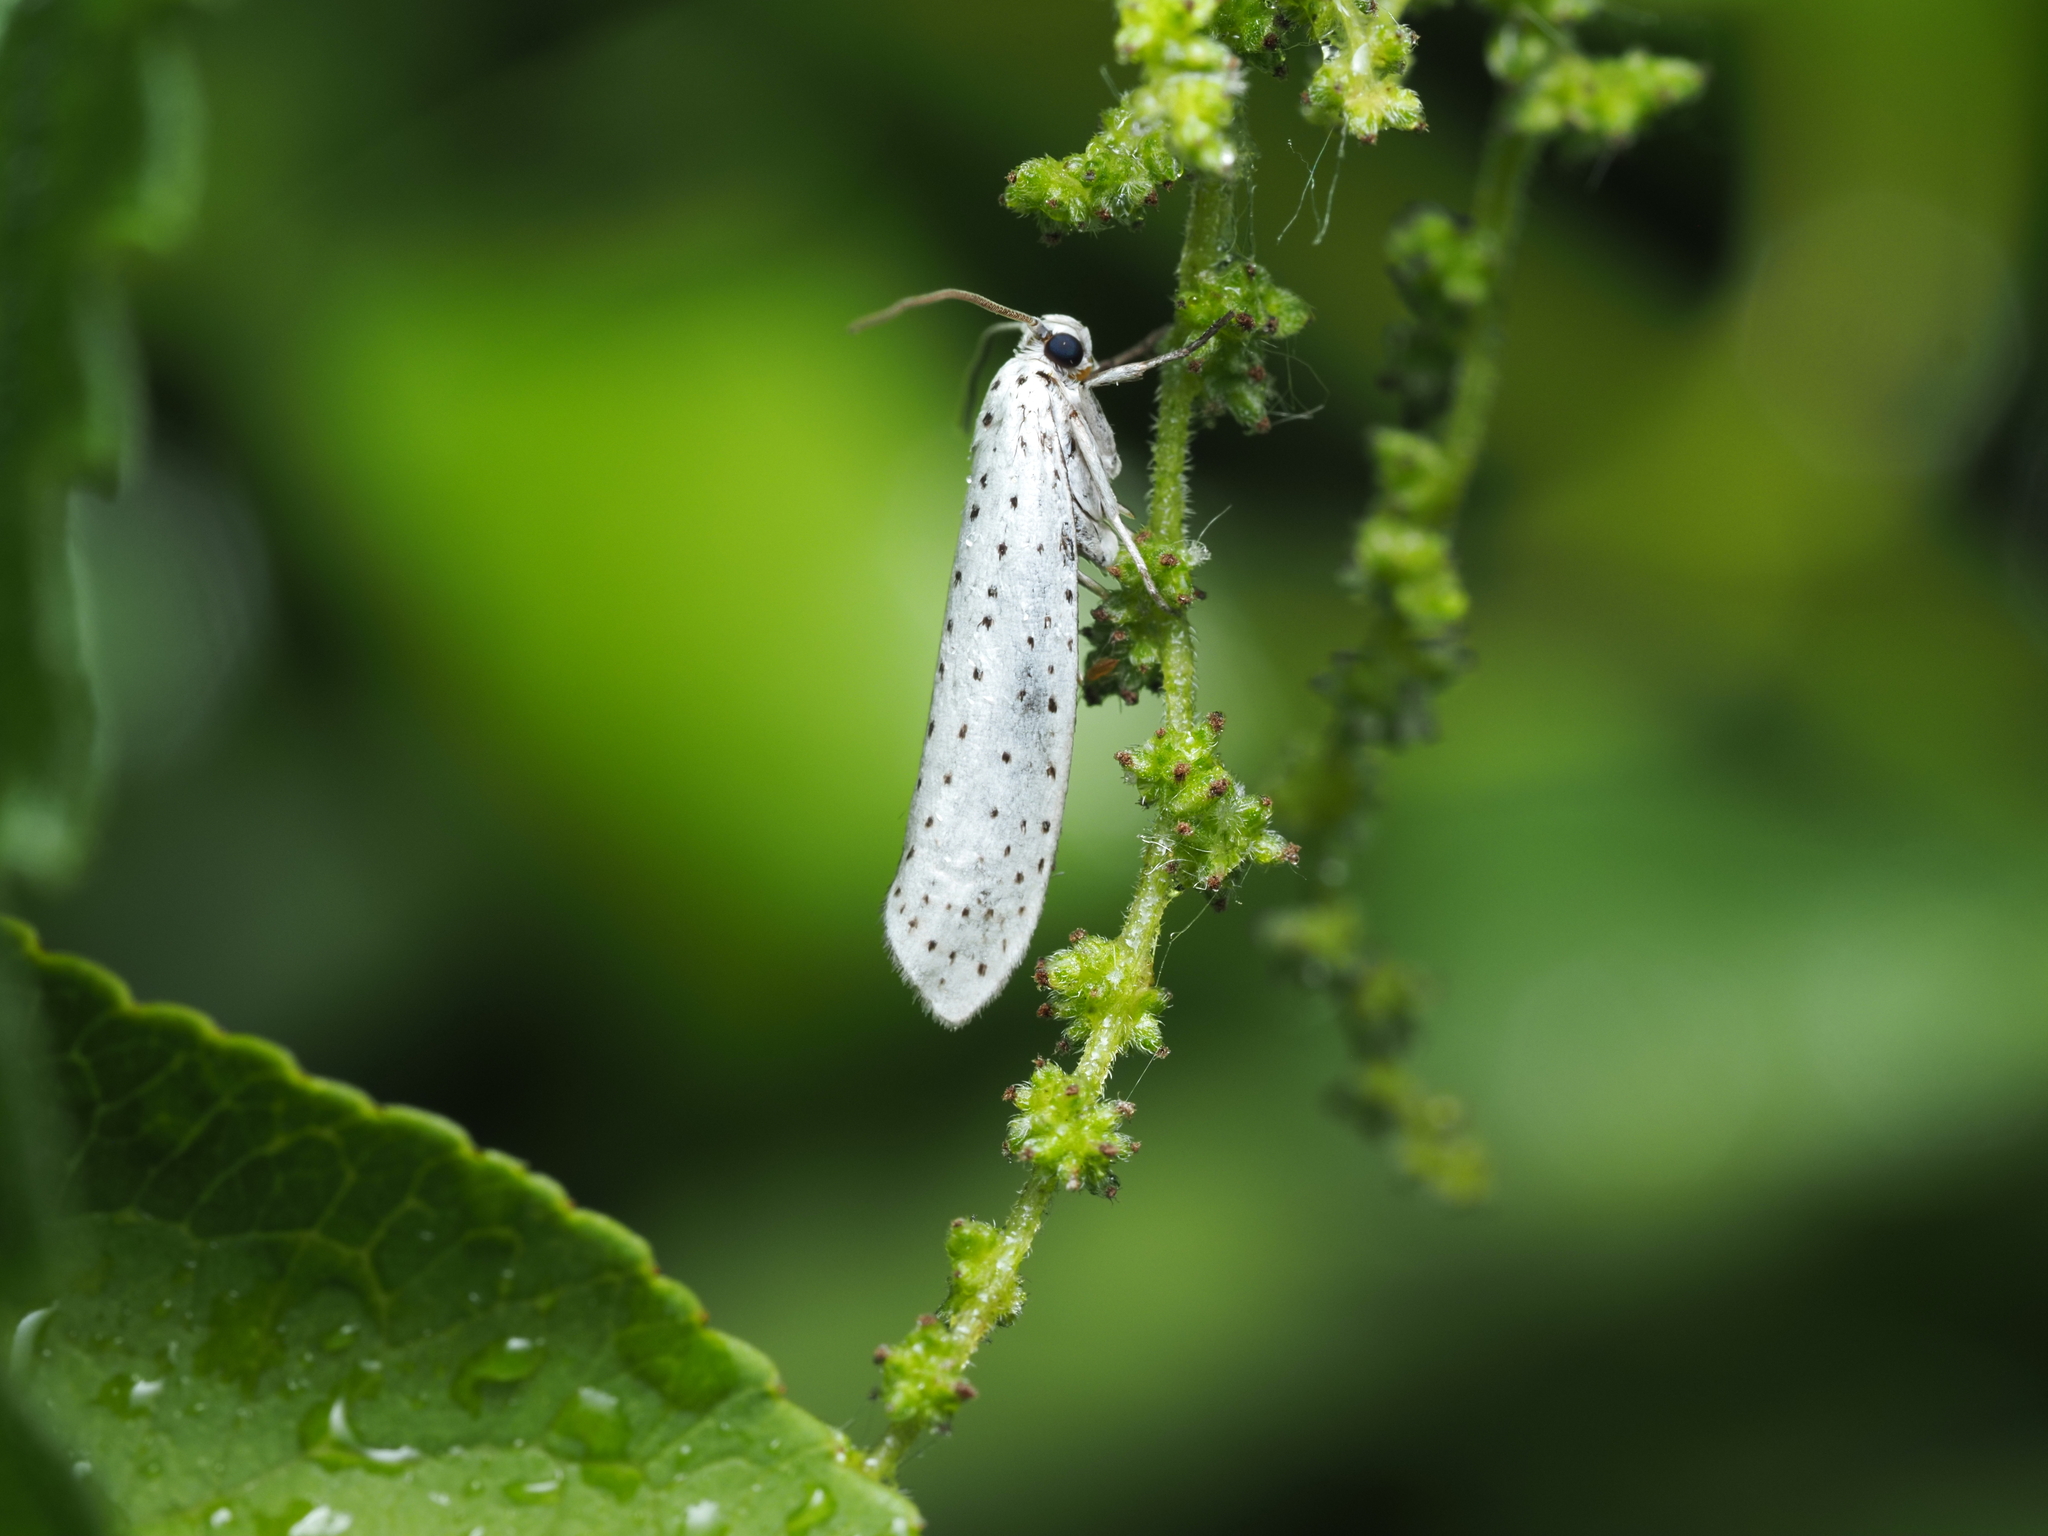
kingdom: Animalia
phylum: Arthropoda
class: Insecta
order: Lepidoptera
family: Yponomeutidae
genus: Yponomeuta
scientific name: Yponomeuta evonymella
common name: Bird-cherry ermine
